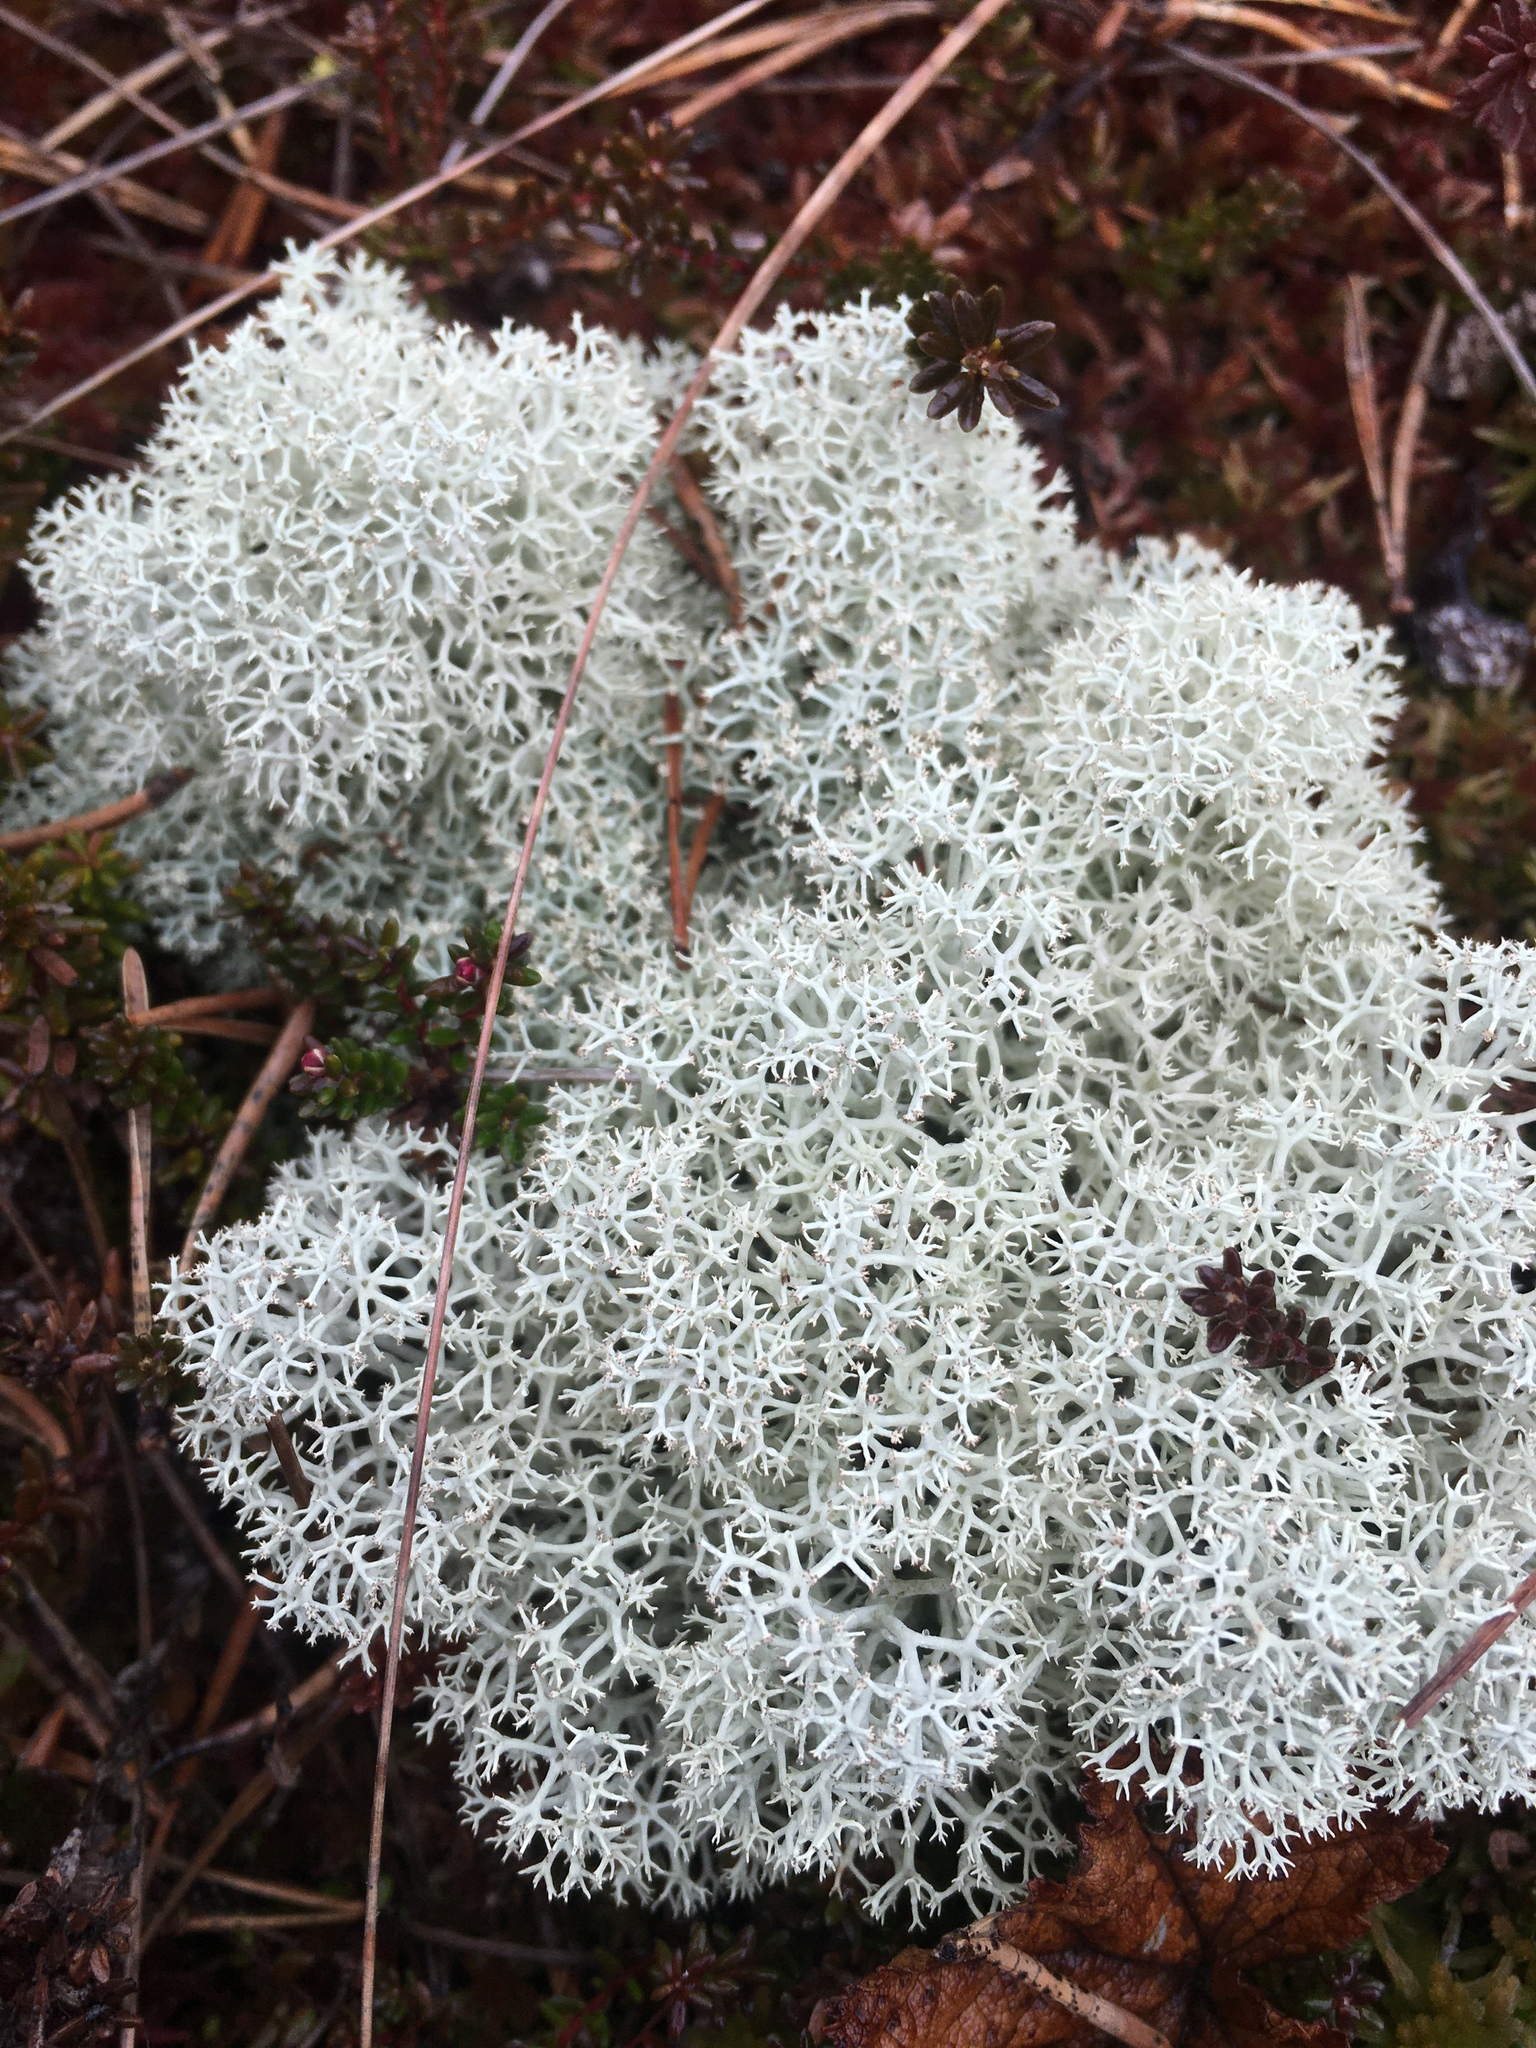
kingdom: Fungi
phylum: Ascomycota
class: Lecanoromycetes
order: Lecanorales
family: Cladoniaceae
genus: Cladonia
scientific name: Cladonia stellaris
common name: Star-tipped reindeer lichen
